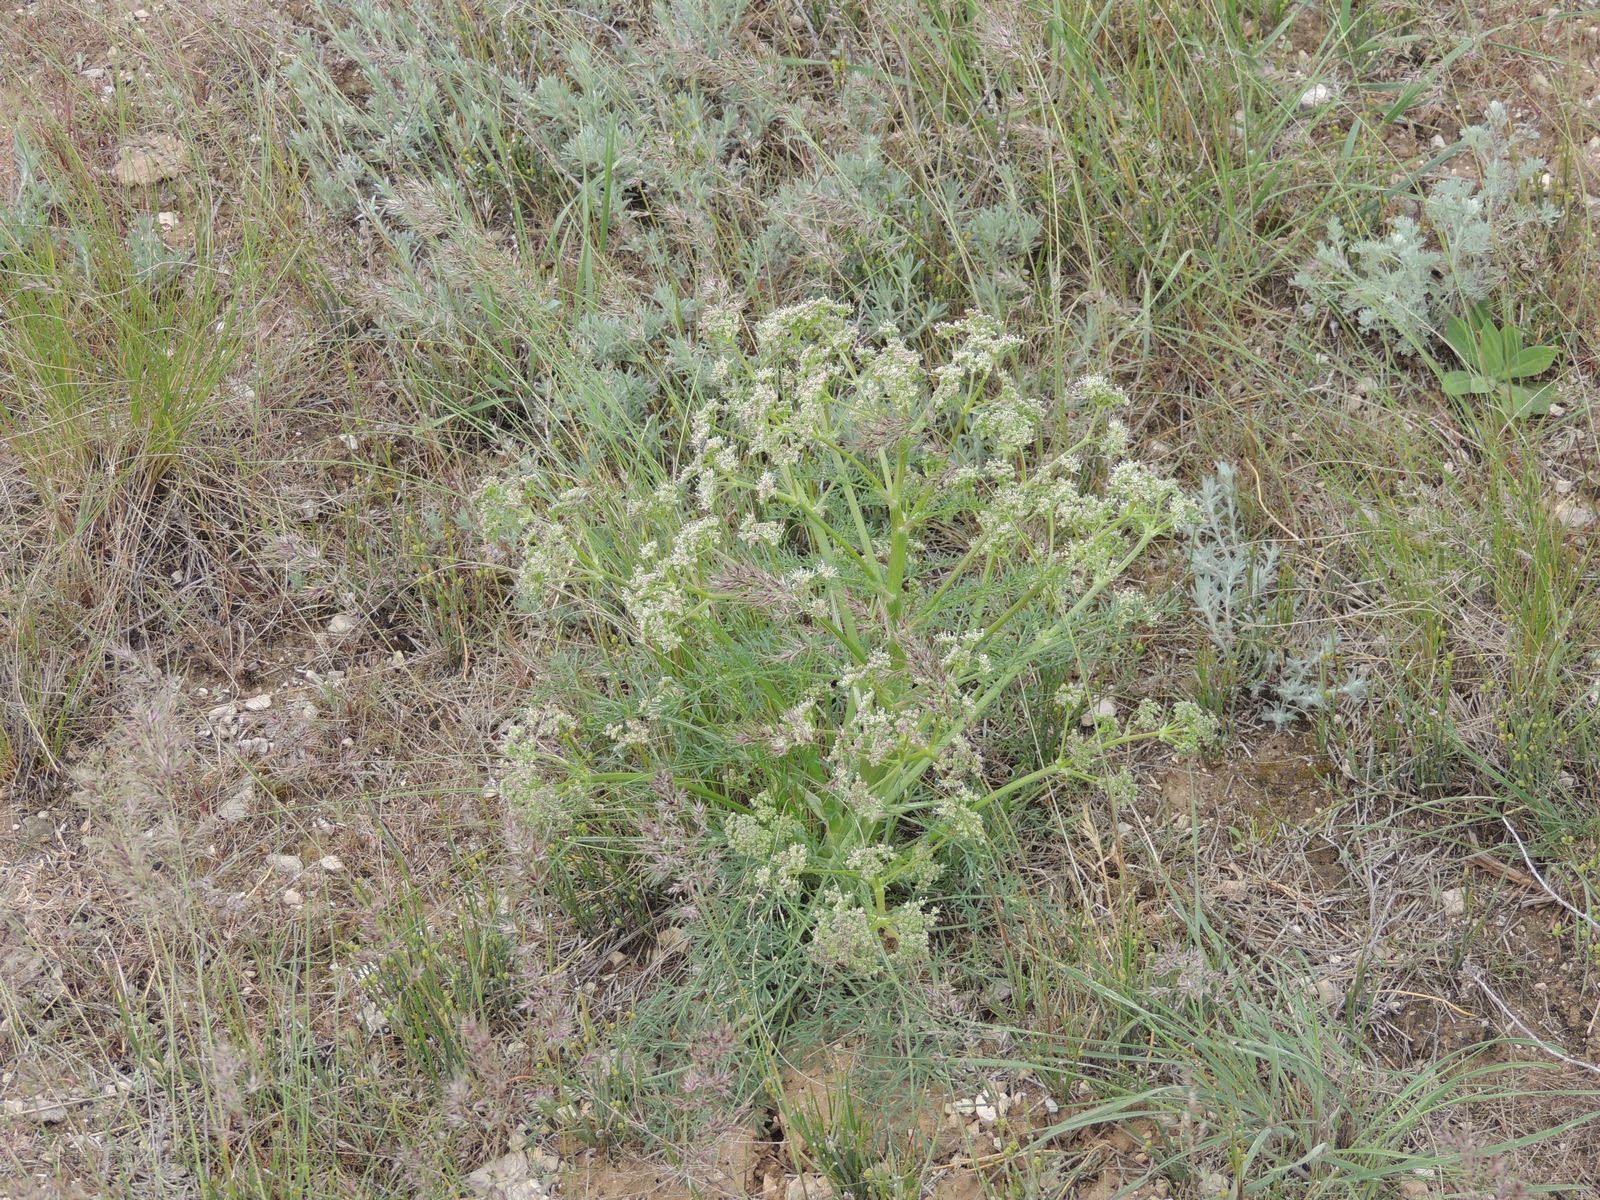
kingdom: Plantae
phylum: Tracheophyta
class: Magnoliopsida
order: Apiales
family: Apiaceae
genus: Trinia
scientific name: Trinia hispida
